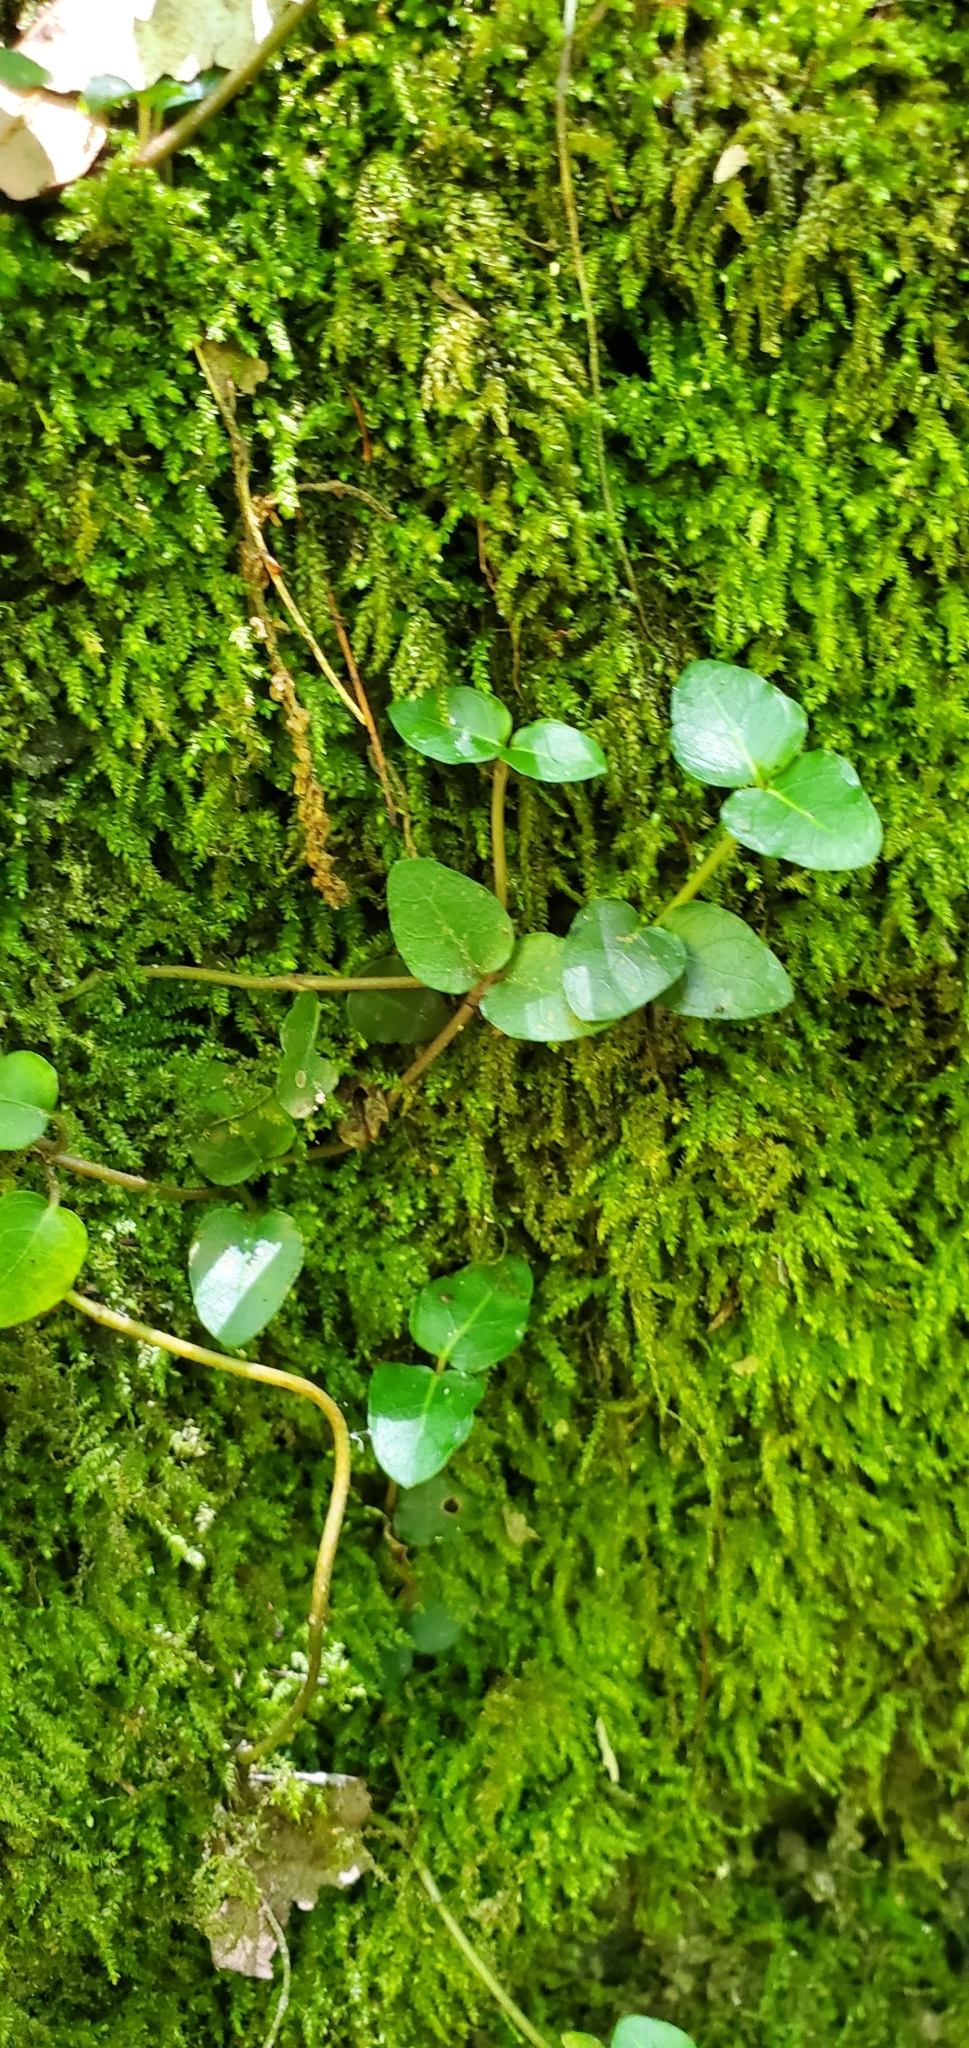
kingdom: Plantae
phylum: Tracheophyta
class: Magnoliopsida
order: Gentianales
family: Rubiaceae
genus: Mitchella
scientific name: Mitchella repens
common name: Partridge-berry
